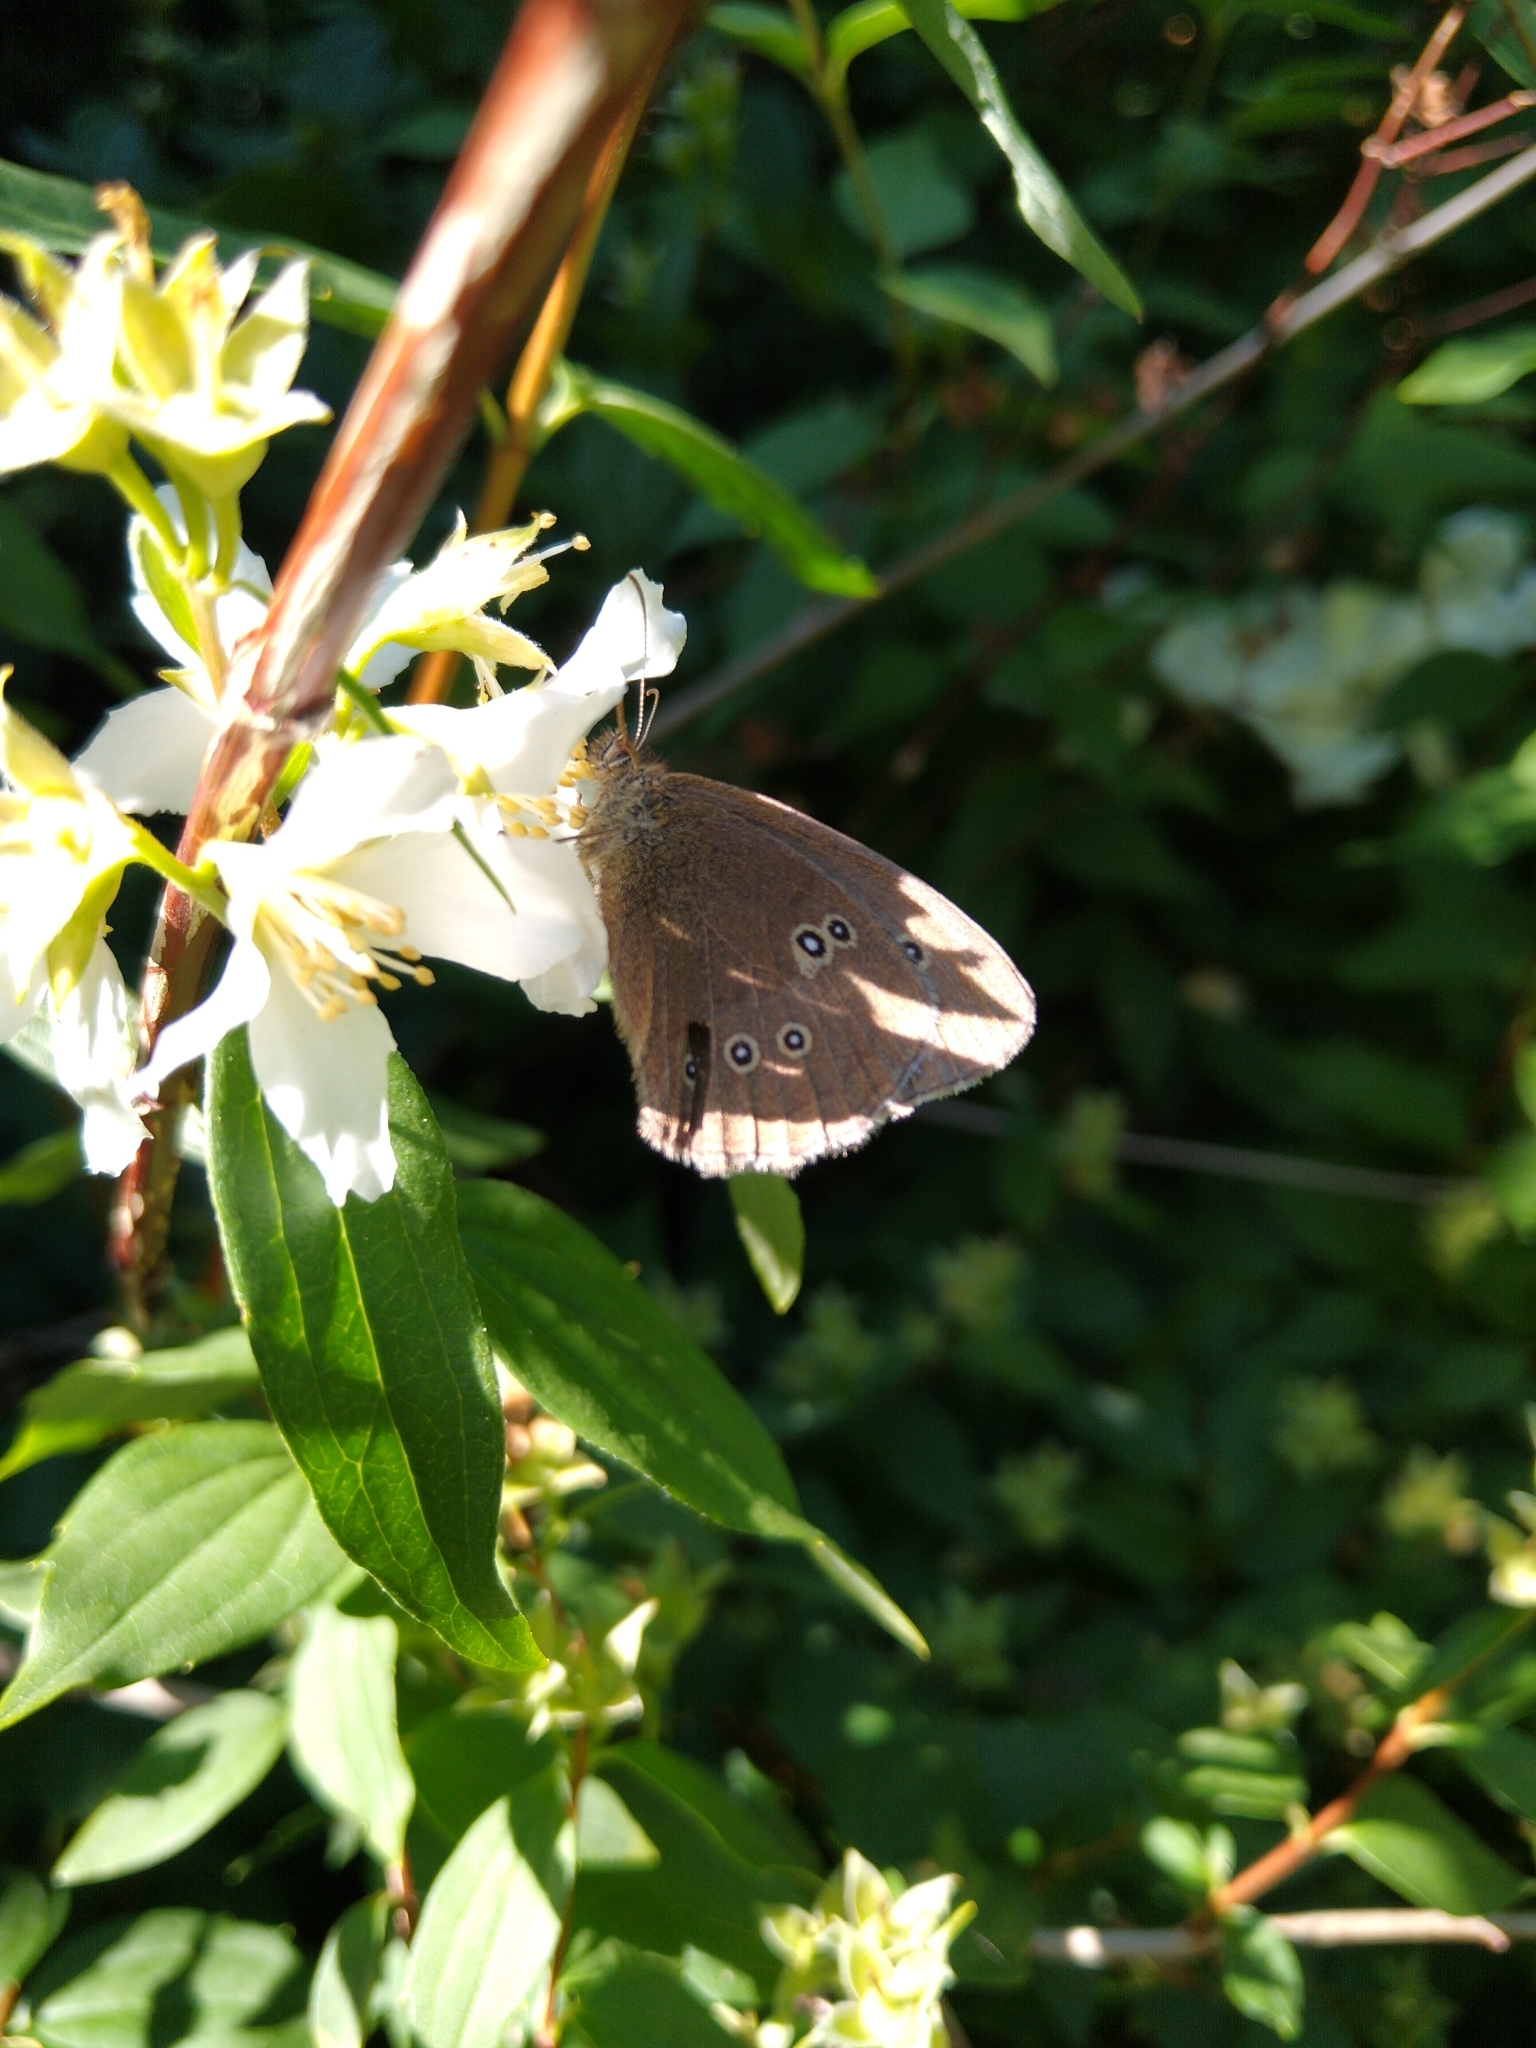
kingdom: Animalia
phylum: Arthropoda
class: Insecta
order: Lepidoptera
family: Nymphalidae
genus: Aphantopus
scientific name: Aphantopus hyperantus
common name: Ringlet
